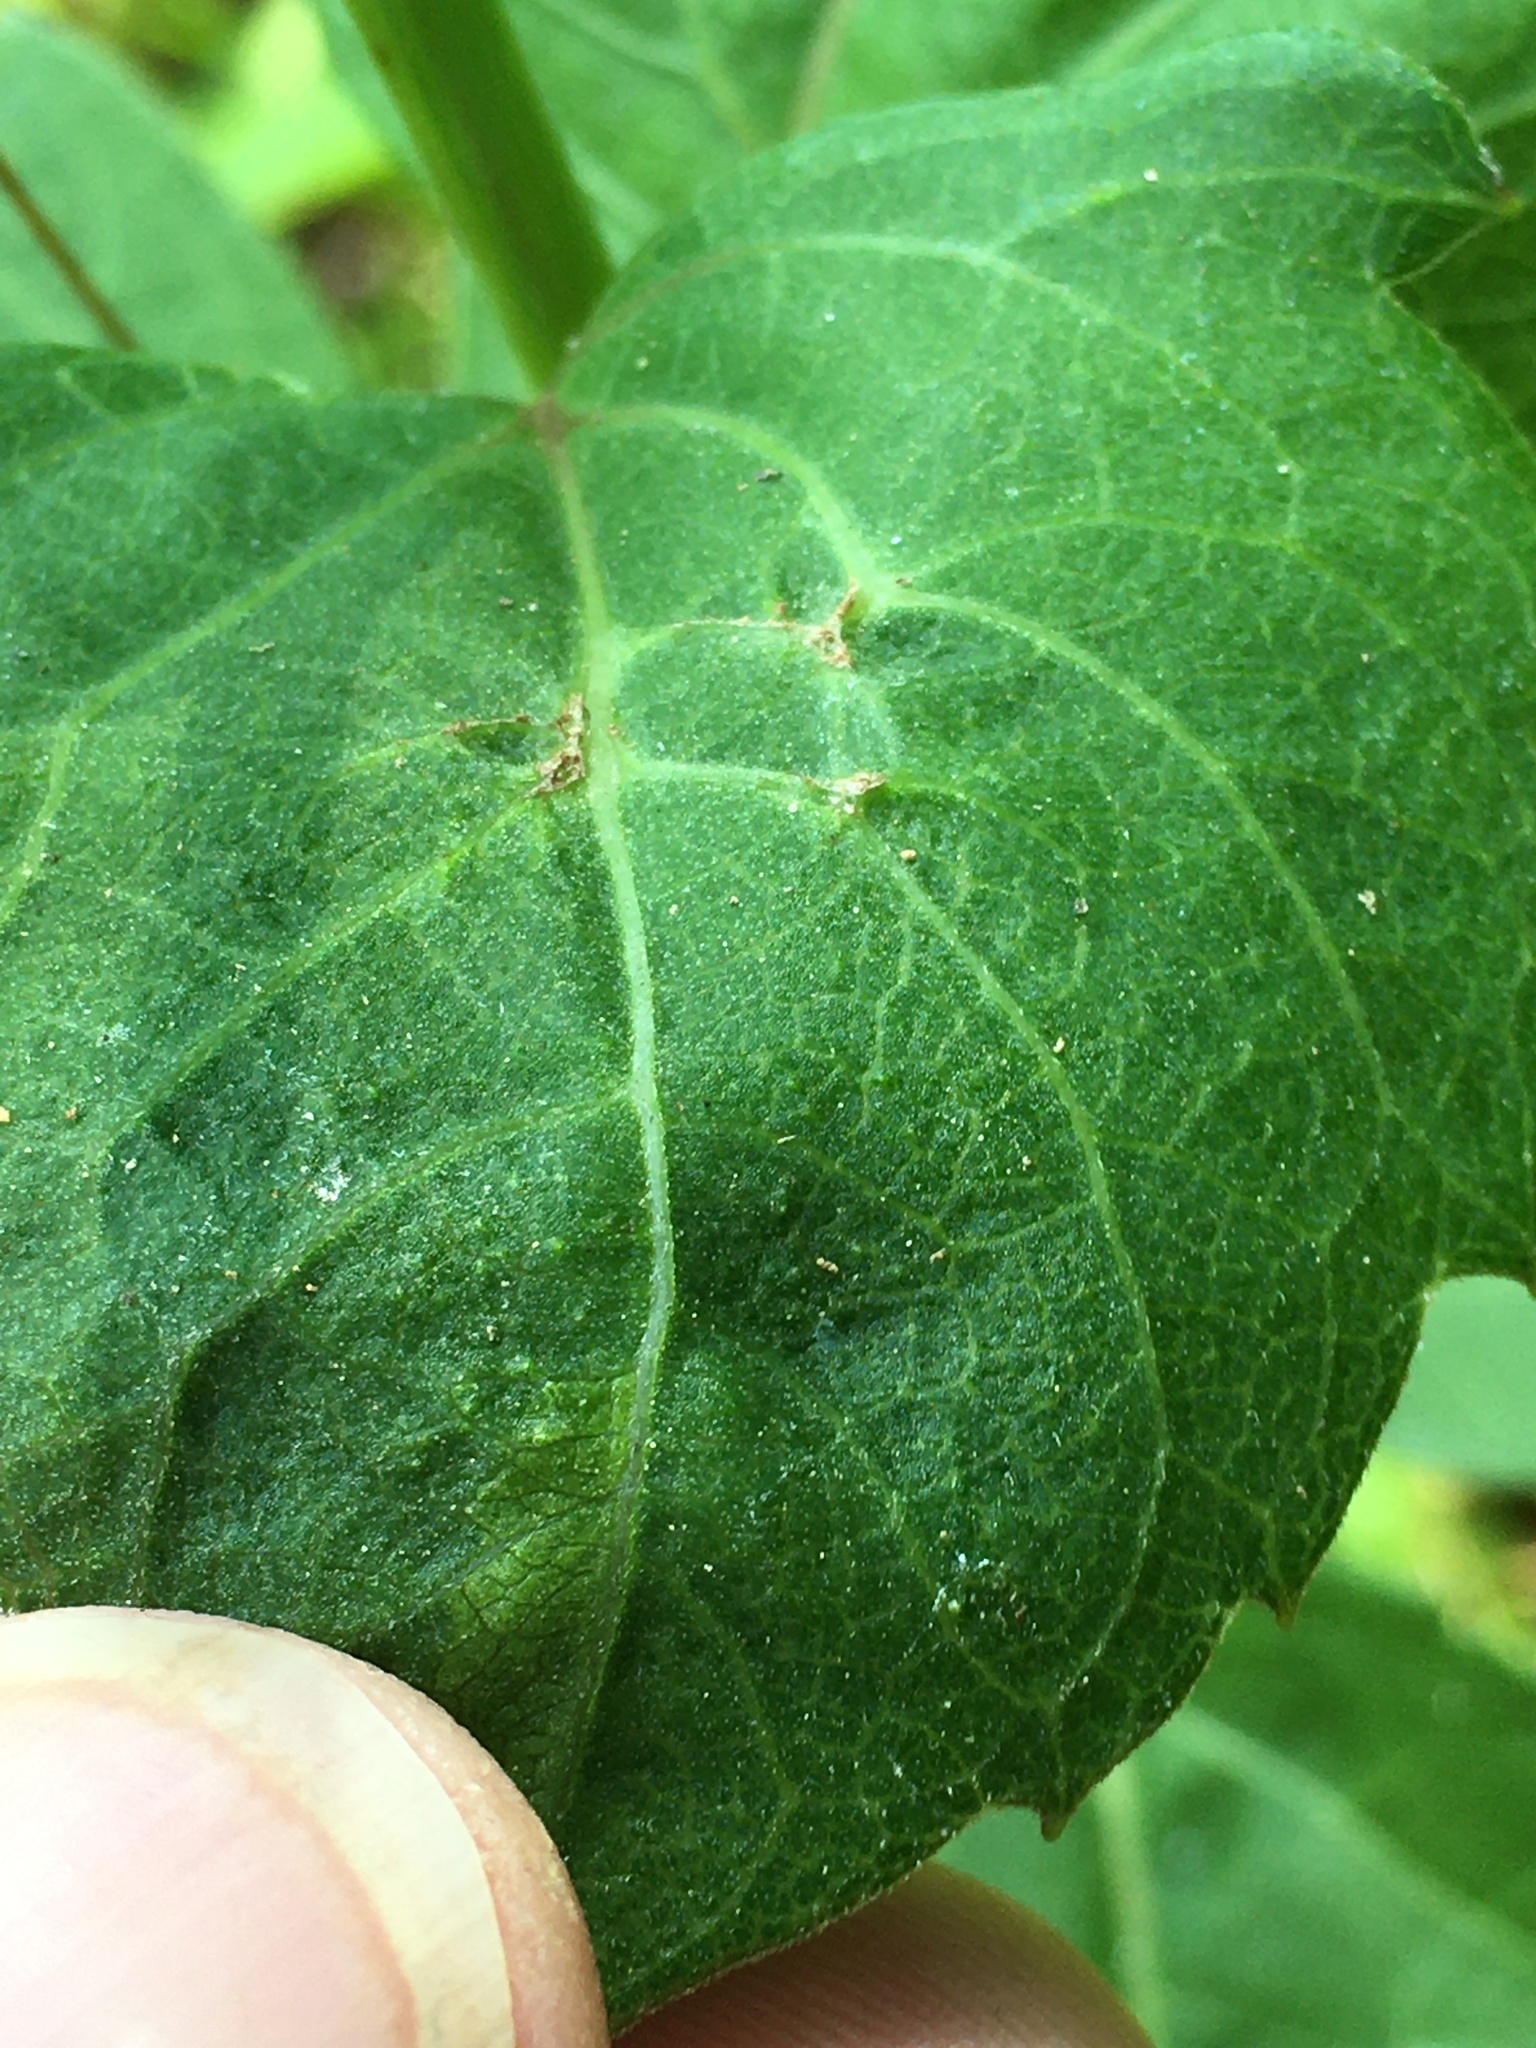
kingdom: Plantae
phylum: Tracheophyta
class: Magnoliopsida
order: Asterales
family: Asteraceae
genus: Rudbeckia
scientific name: Rudbeckia laciniata
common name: Coneflower
